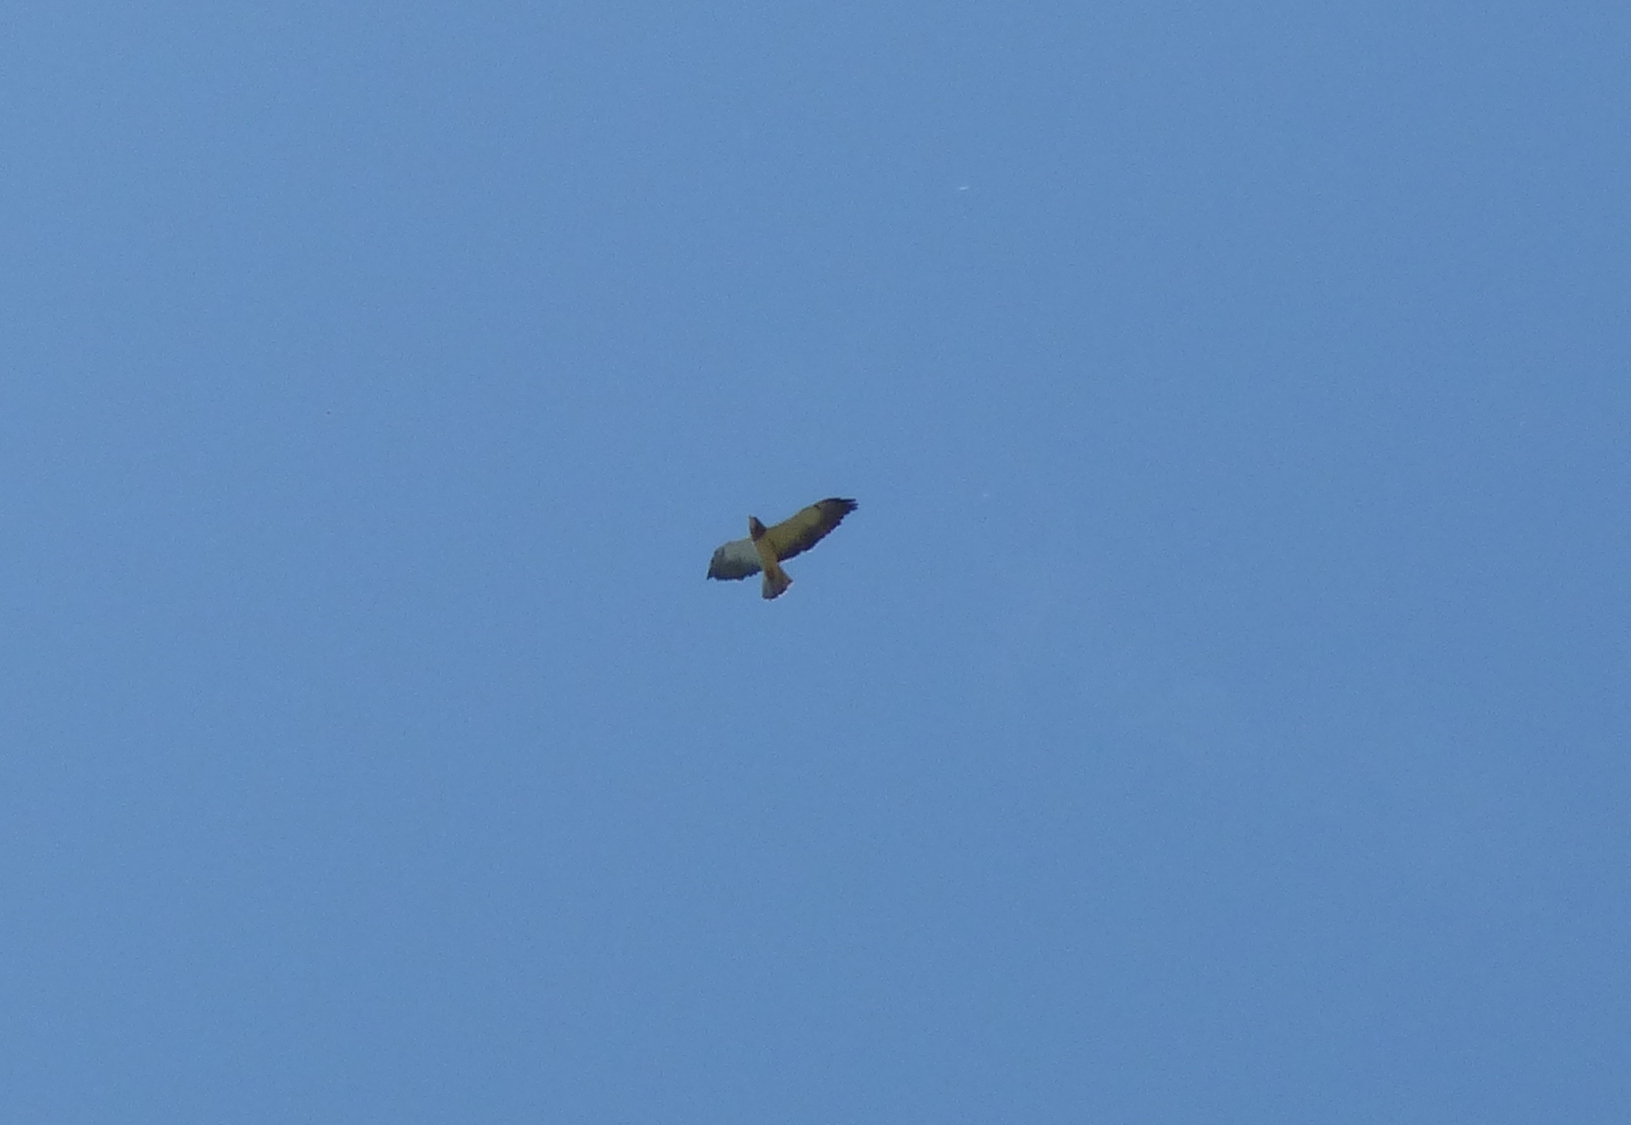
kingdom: Animalia
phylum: Chordata
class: Aves
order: Accipitriformes
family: Accipitridae
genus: Buteo
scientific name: Buteo swainsoni
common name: Swainson's hawk
